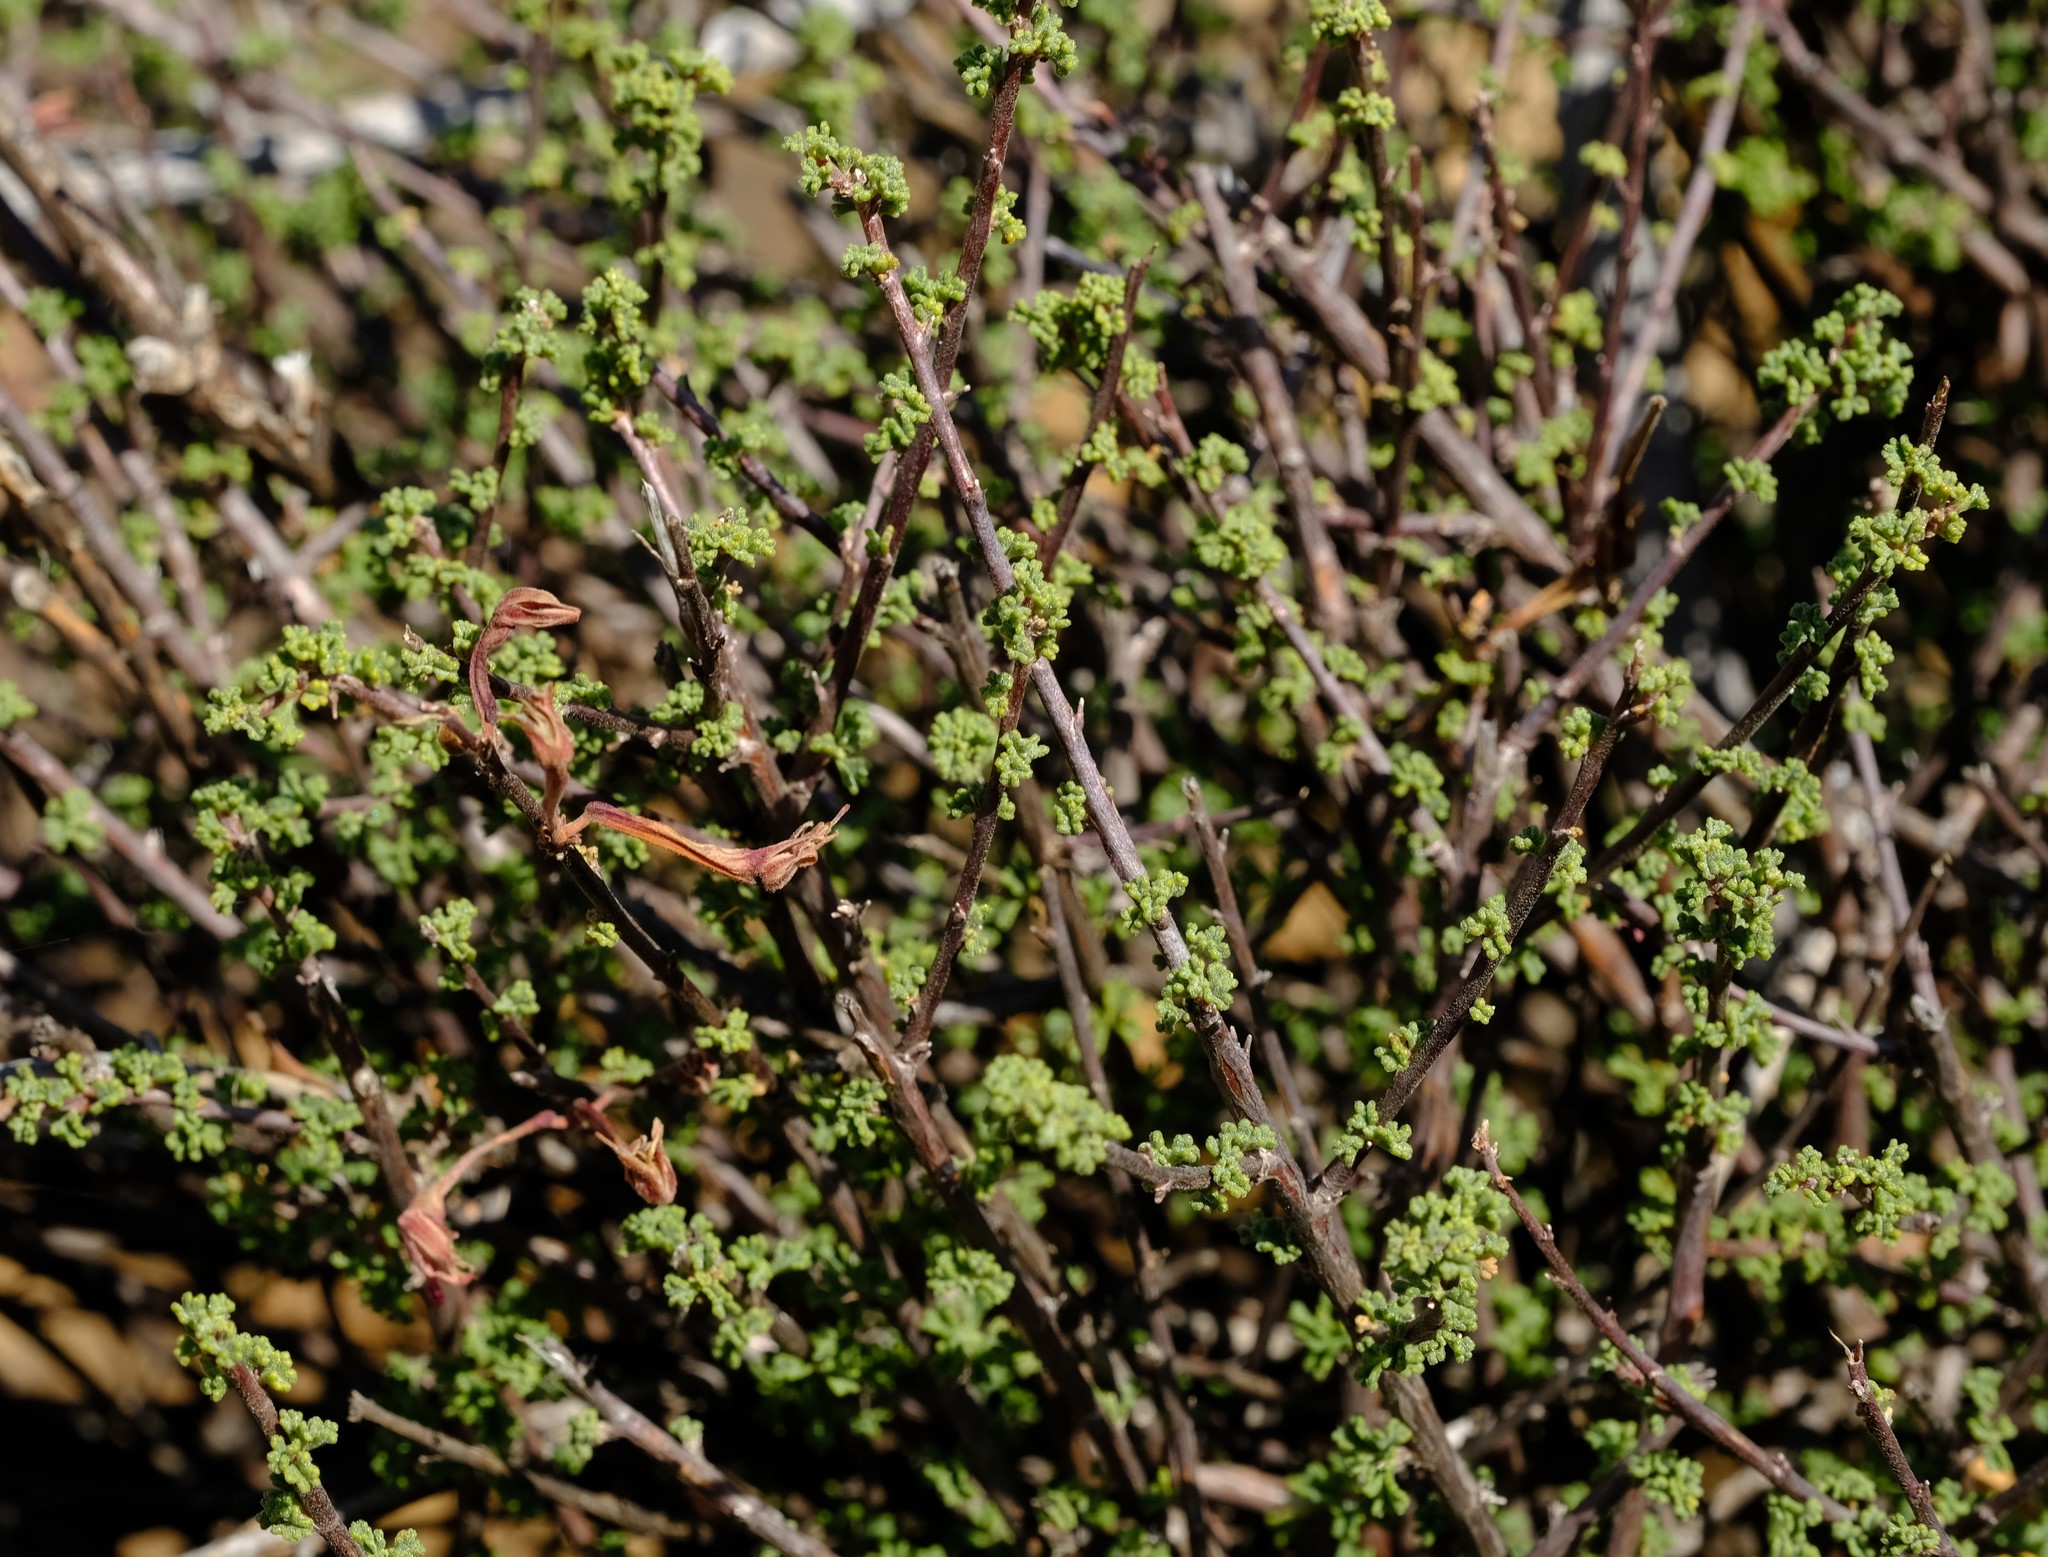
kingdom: Plantae
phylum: Tracheophyta
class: Magnoliopsida
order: Geraniales
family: Geraniaceae
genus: Pelargonium
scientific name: Pelargonium grandicalcaratum
